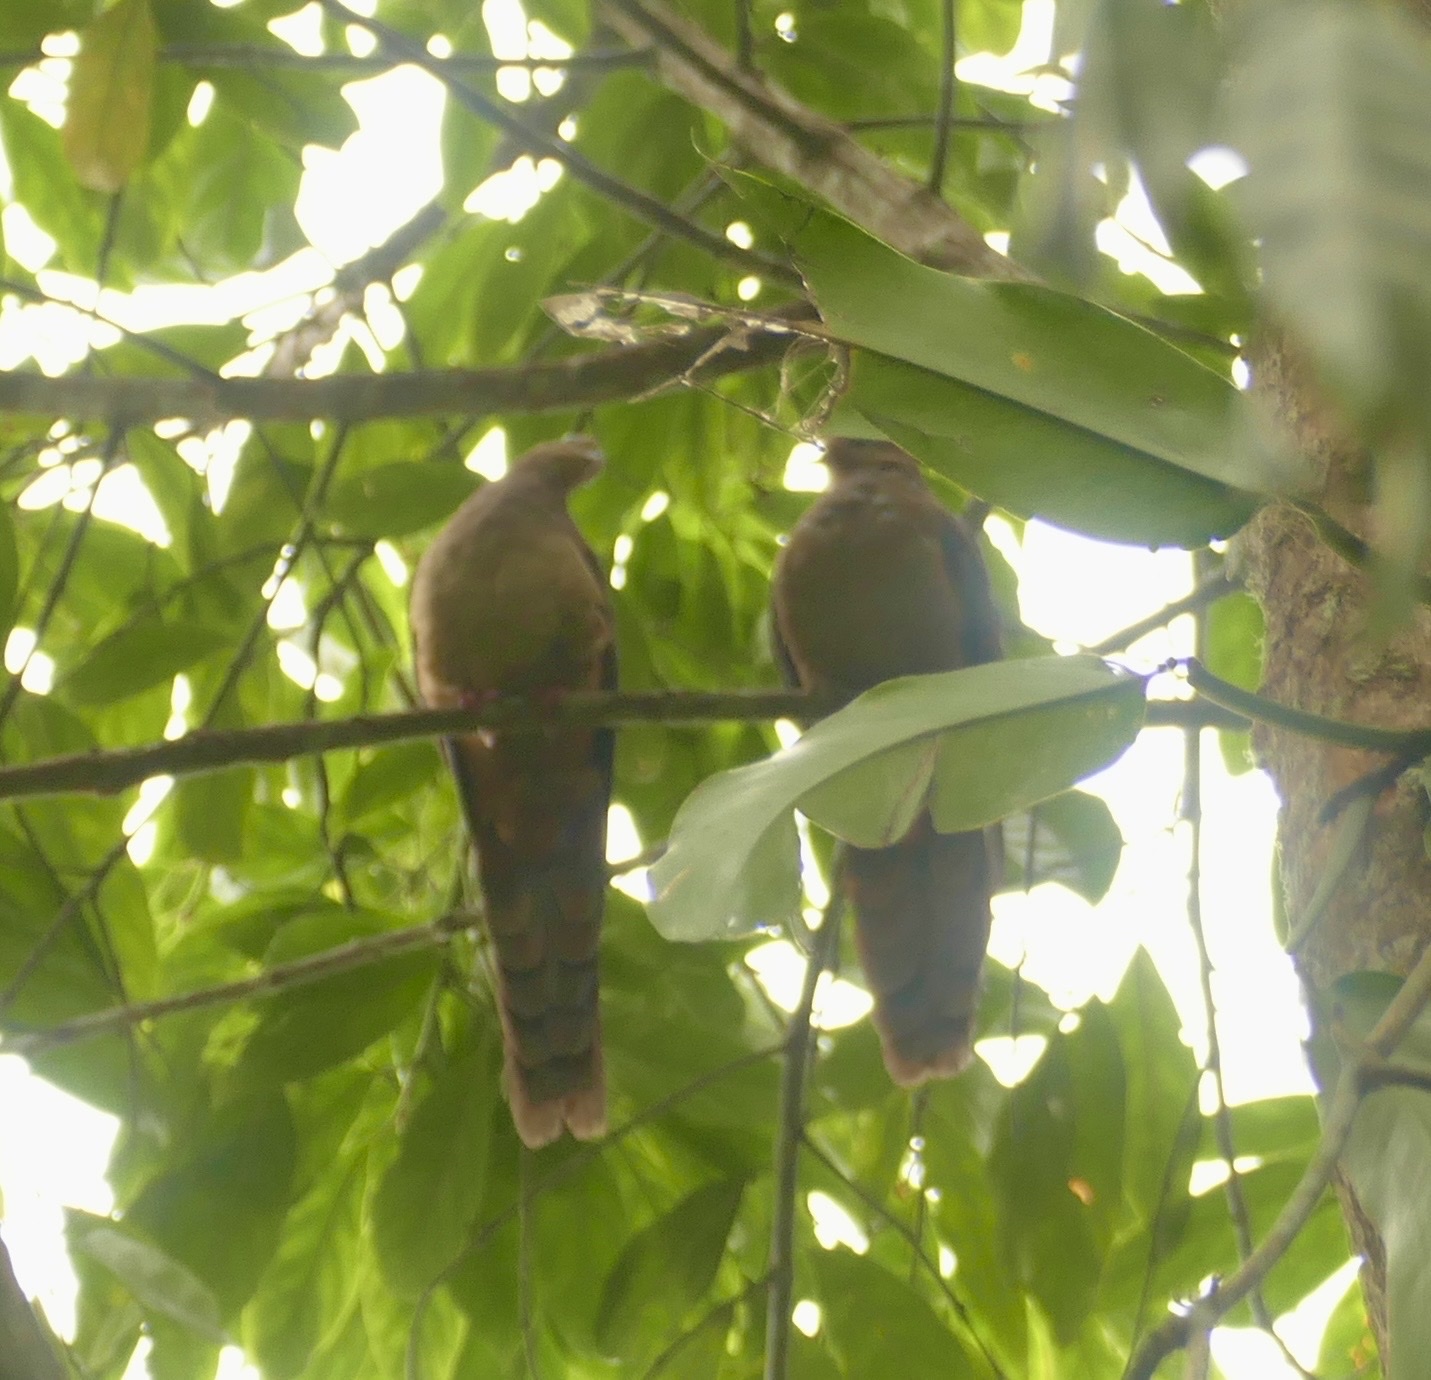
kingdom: Animalia
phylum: Chordata
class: Aves
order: Columbiformes
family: Columbidae
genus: Macropygia
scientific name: Macropygia doreya
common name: Sultan's cuckoo-dove
